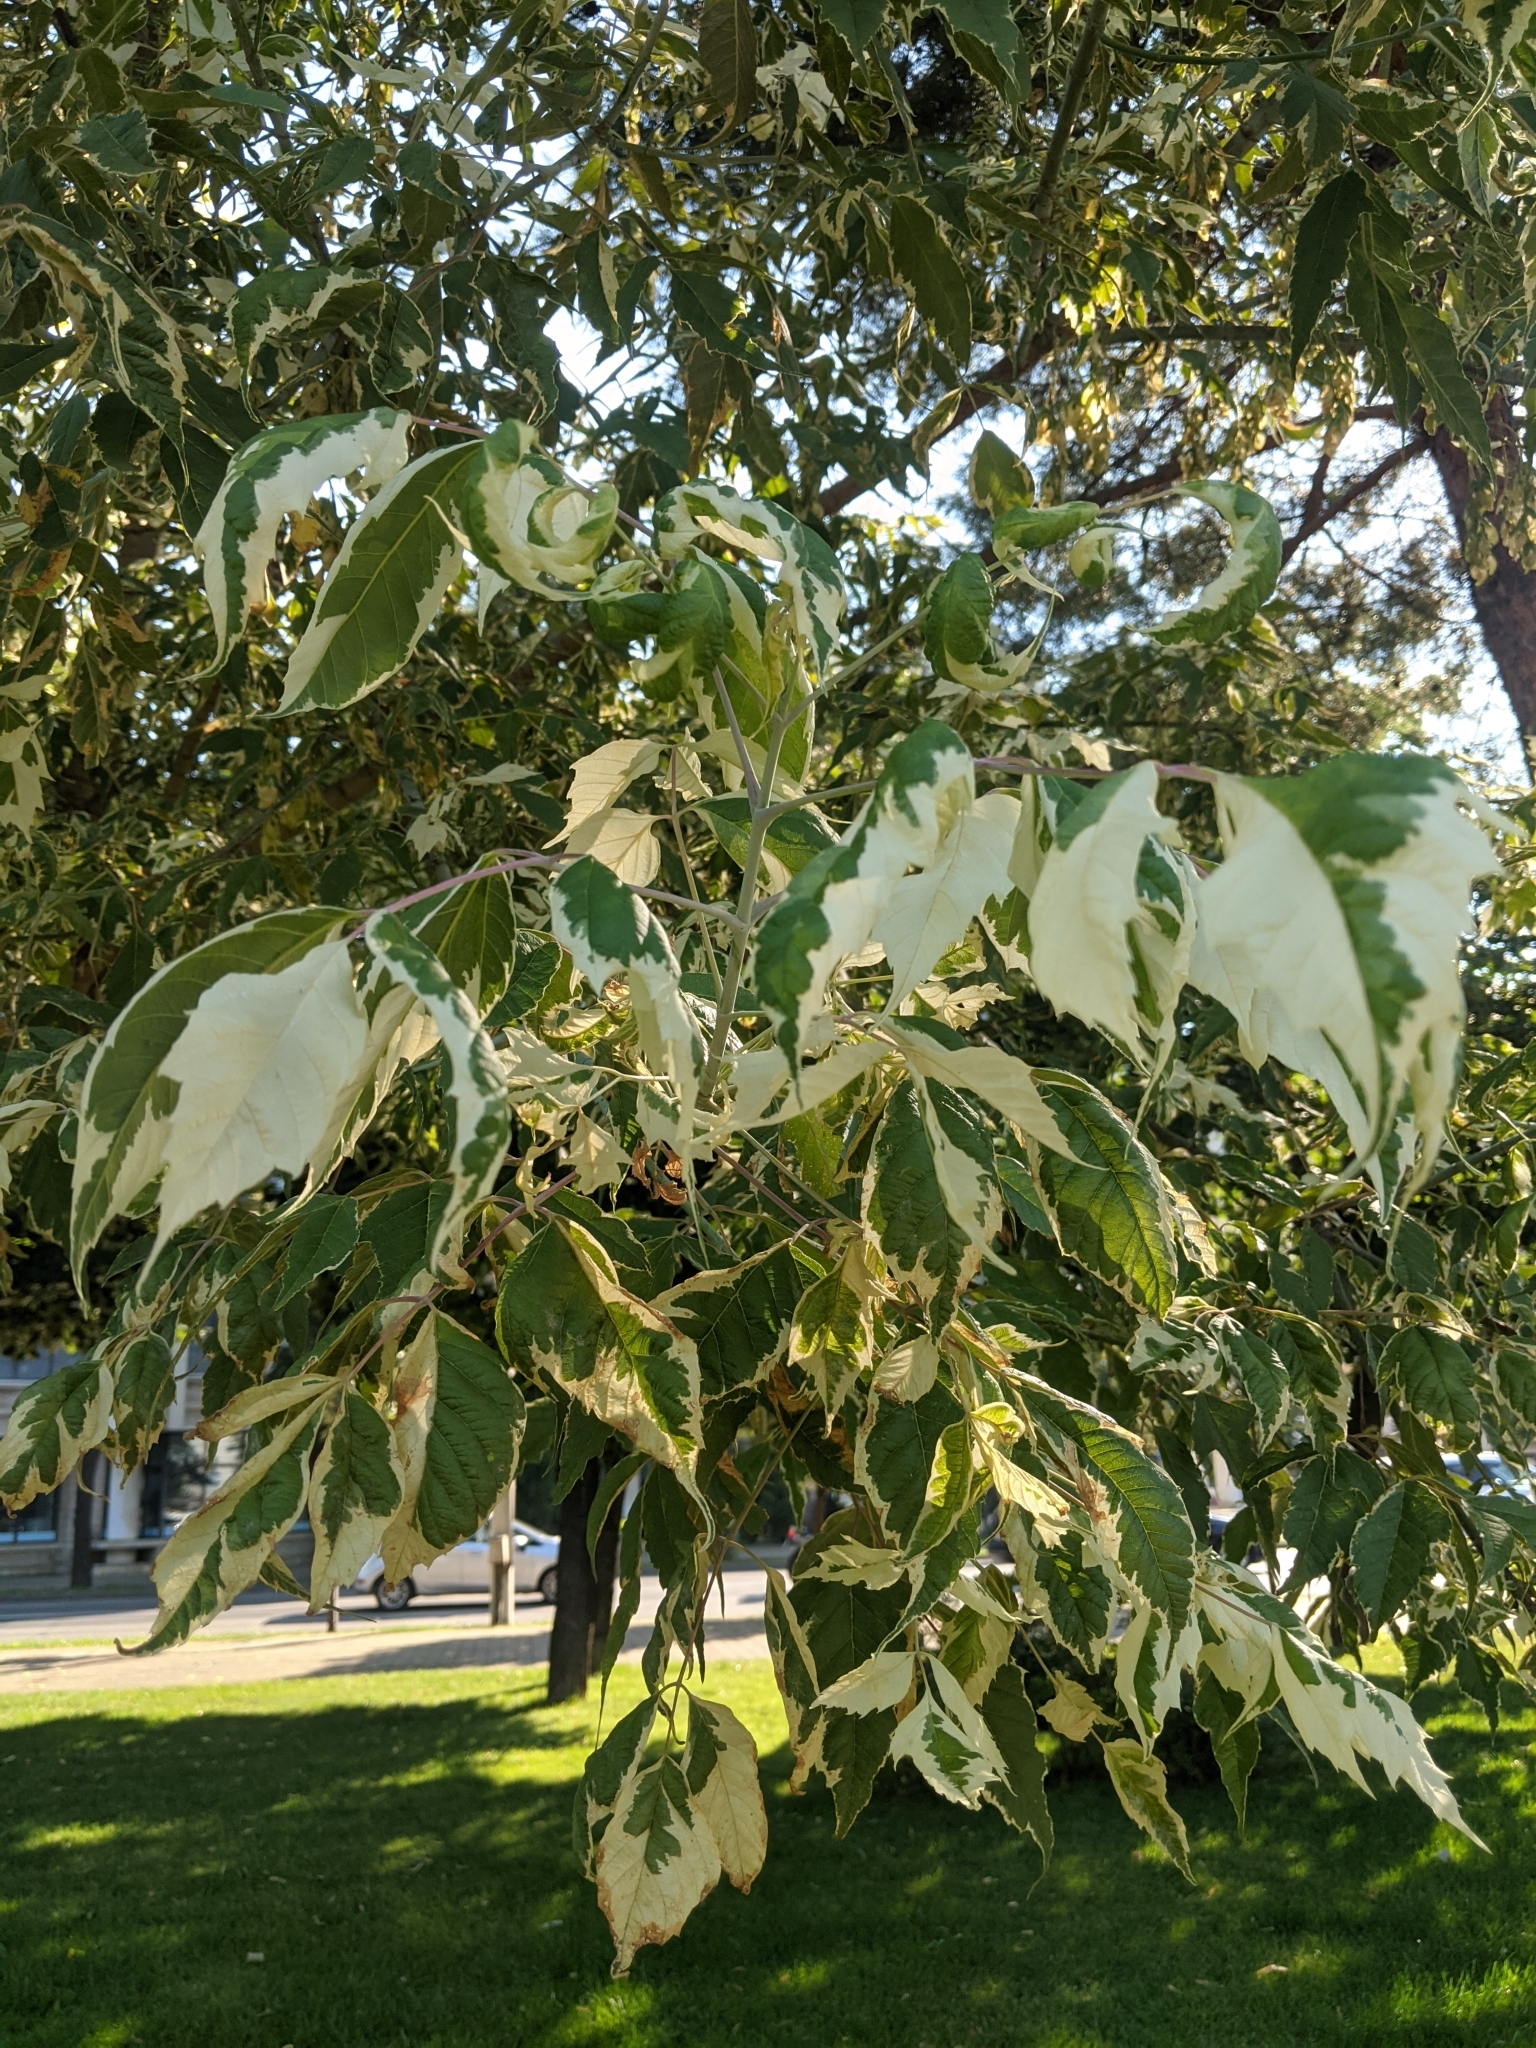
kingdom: Plantae
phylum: Tracheophyta
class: Magnoliopsida
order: Sapindales
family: Sapindaceae
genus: Acer
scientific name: Acer negundo
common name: Ashleaf maple
